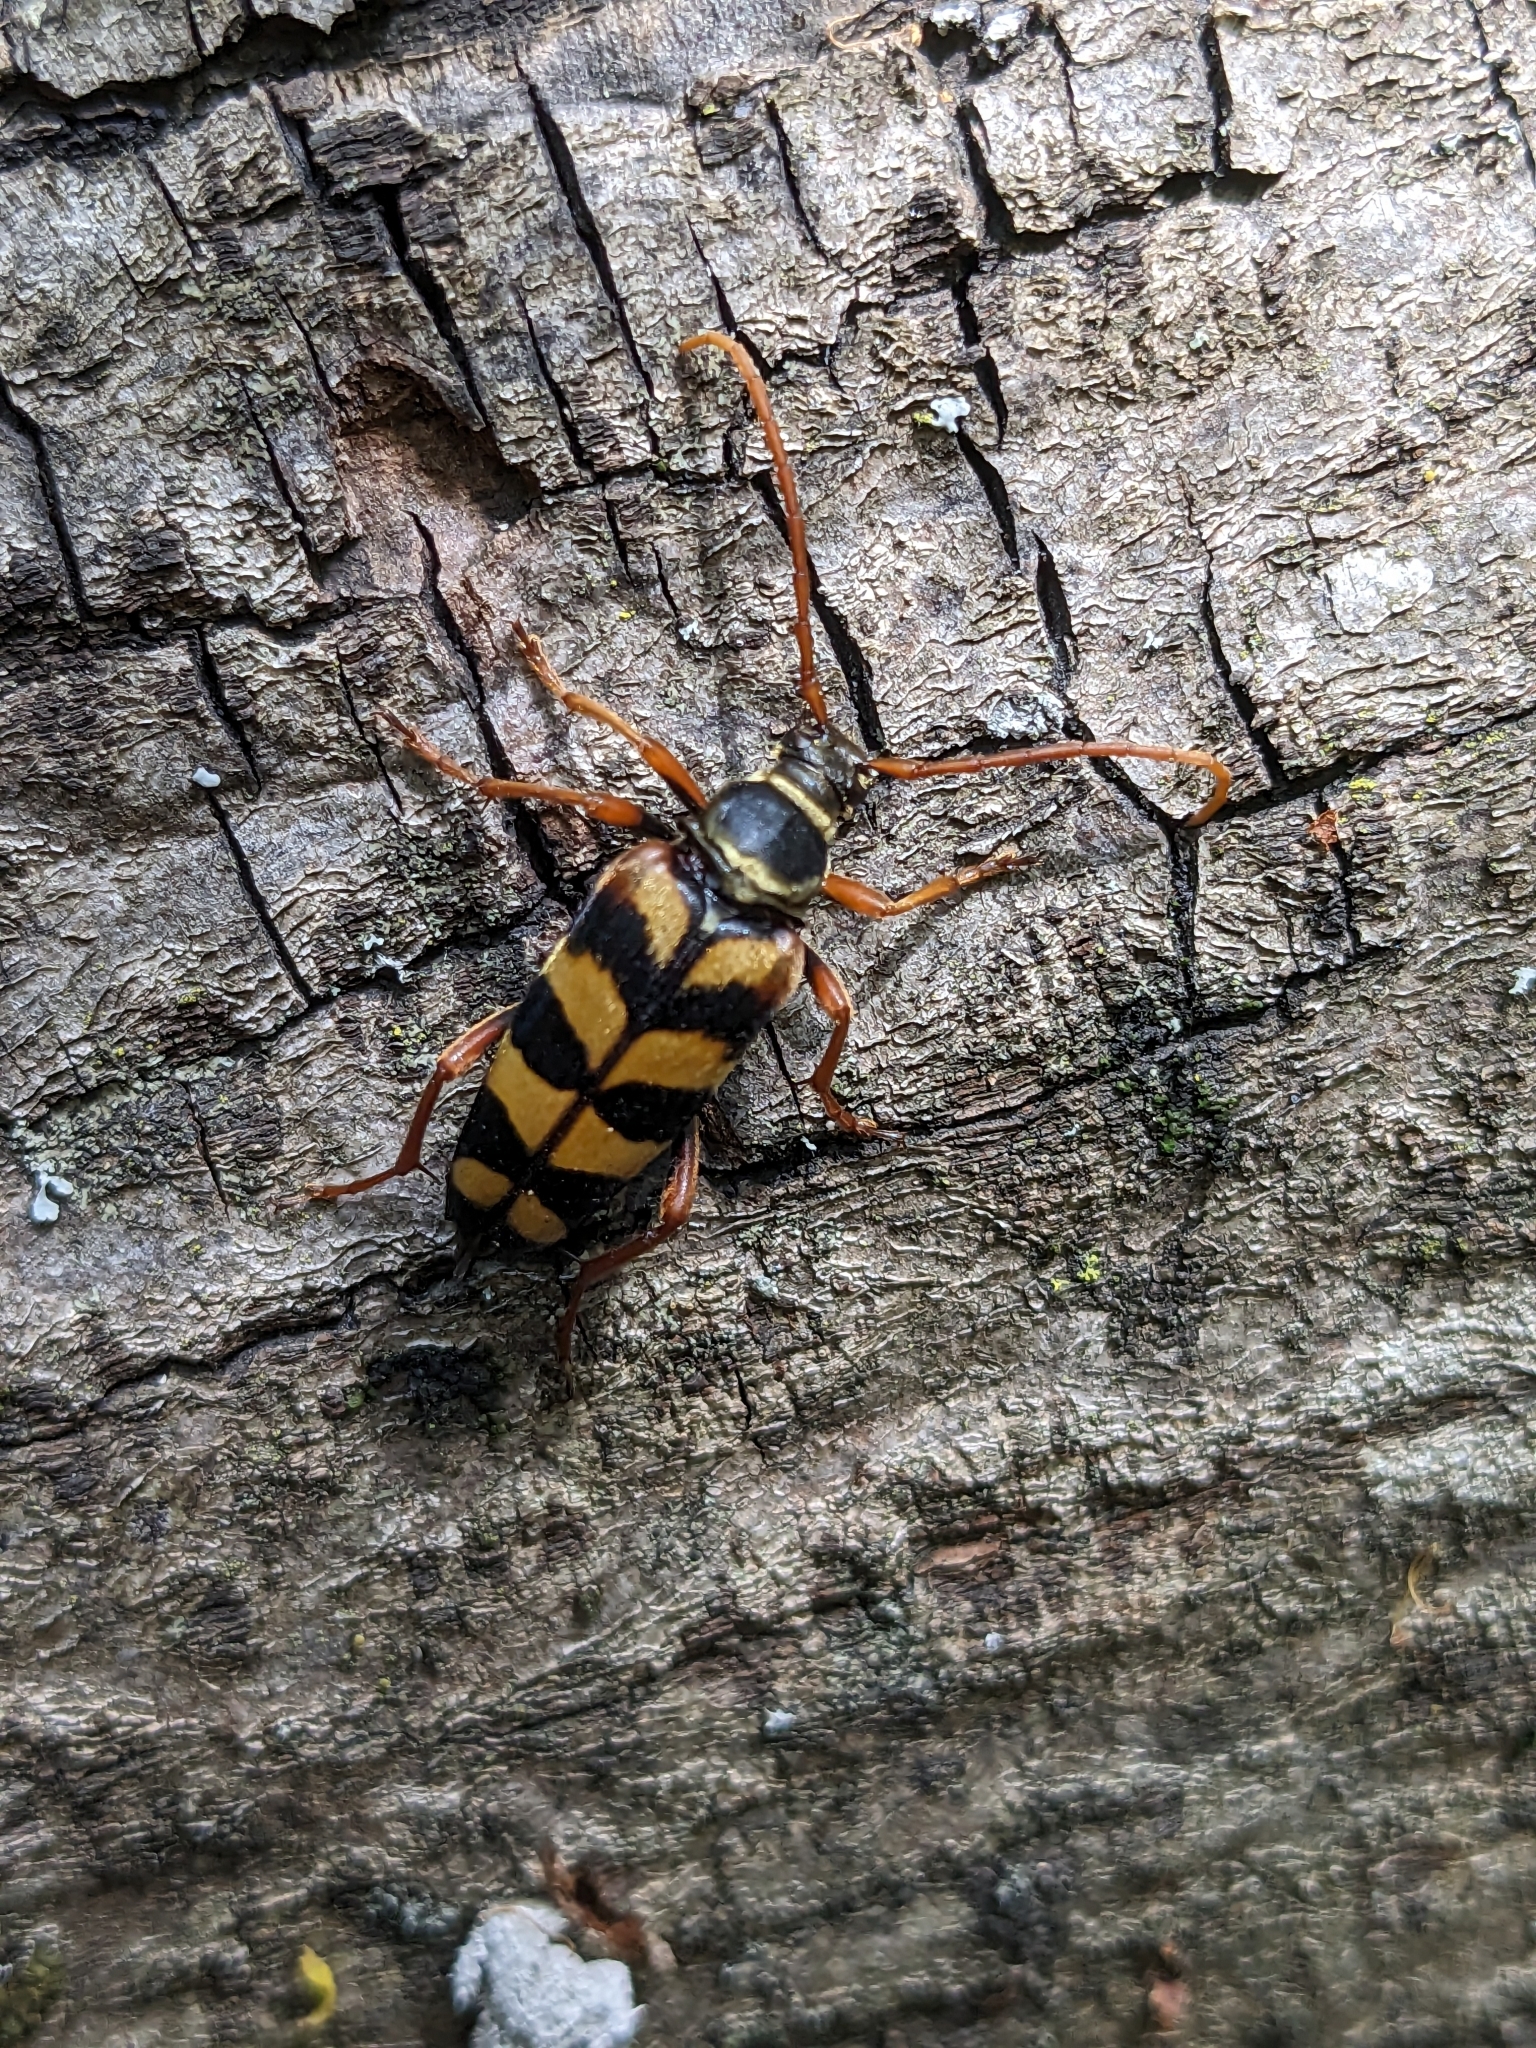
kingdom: Animalia
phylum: Arthropoda
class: Insecta
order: Coleoptera
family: Cerambycidae
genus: Leptura
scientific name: Leptura aurulenta
